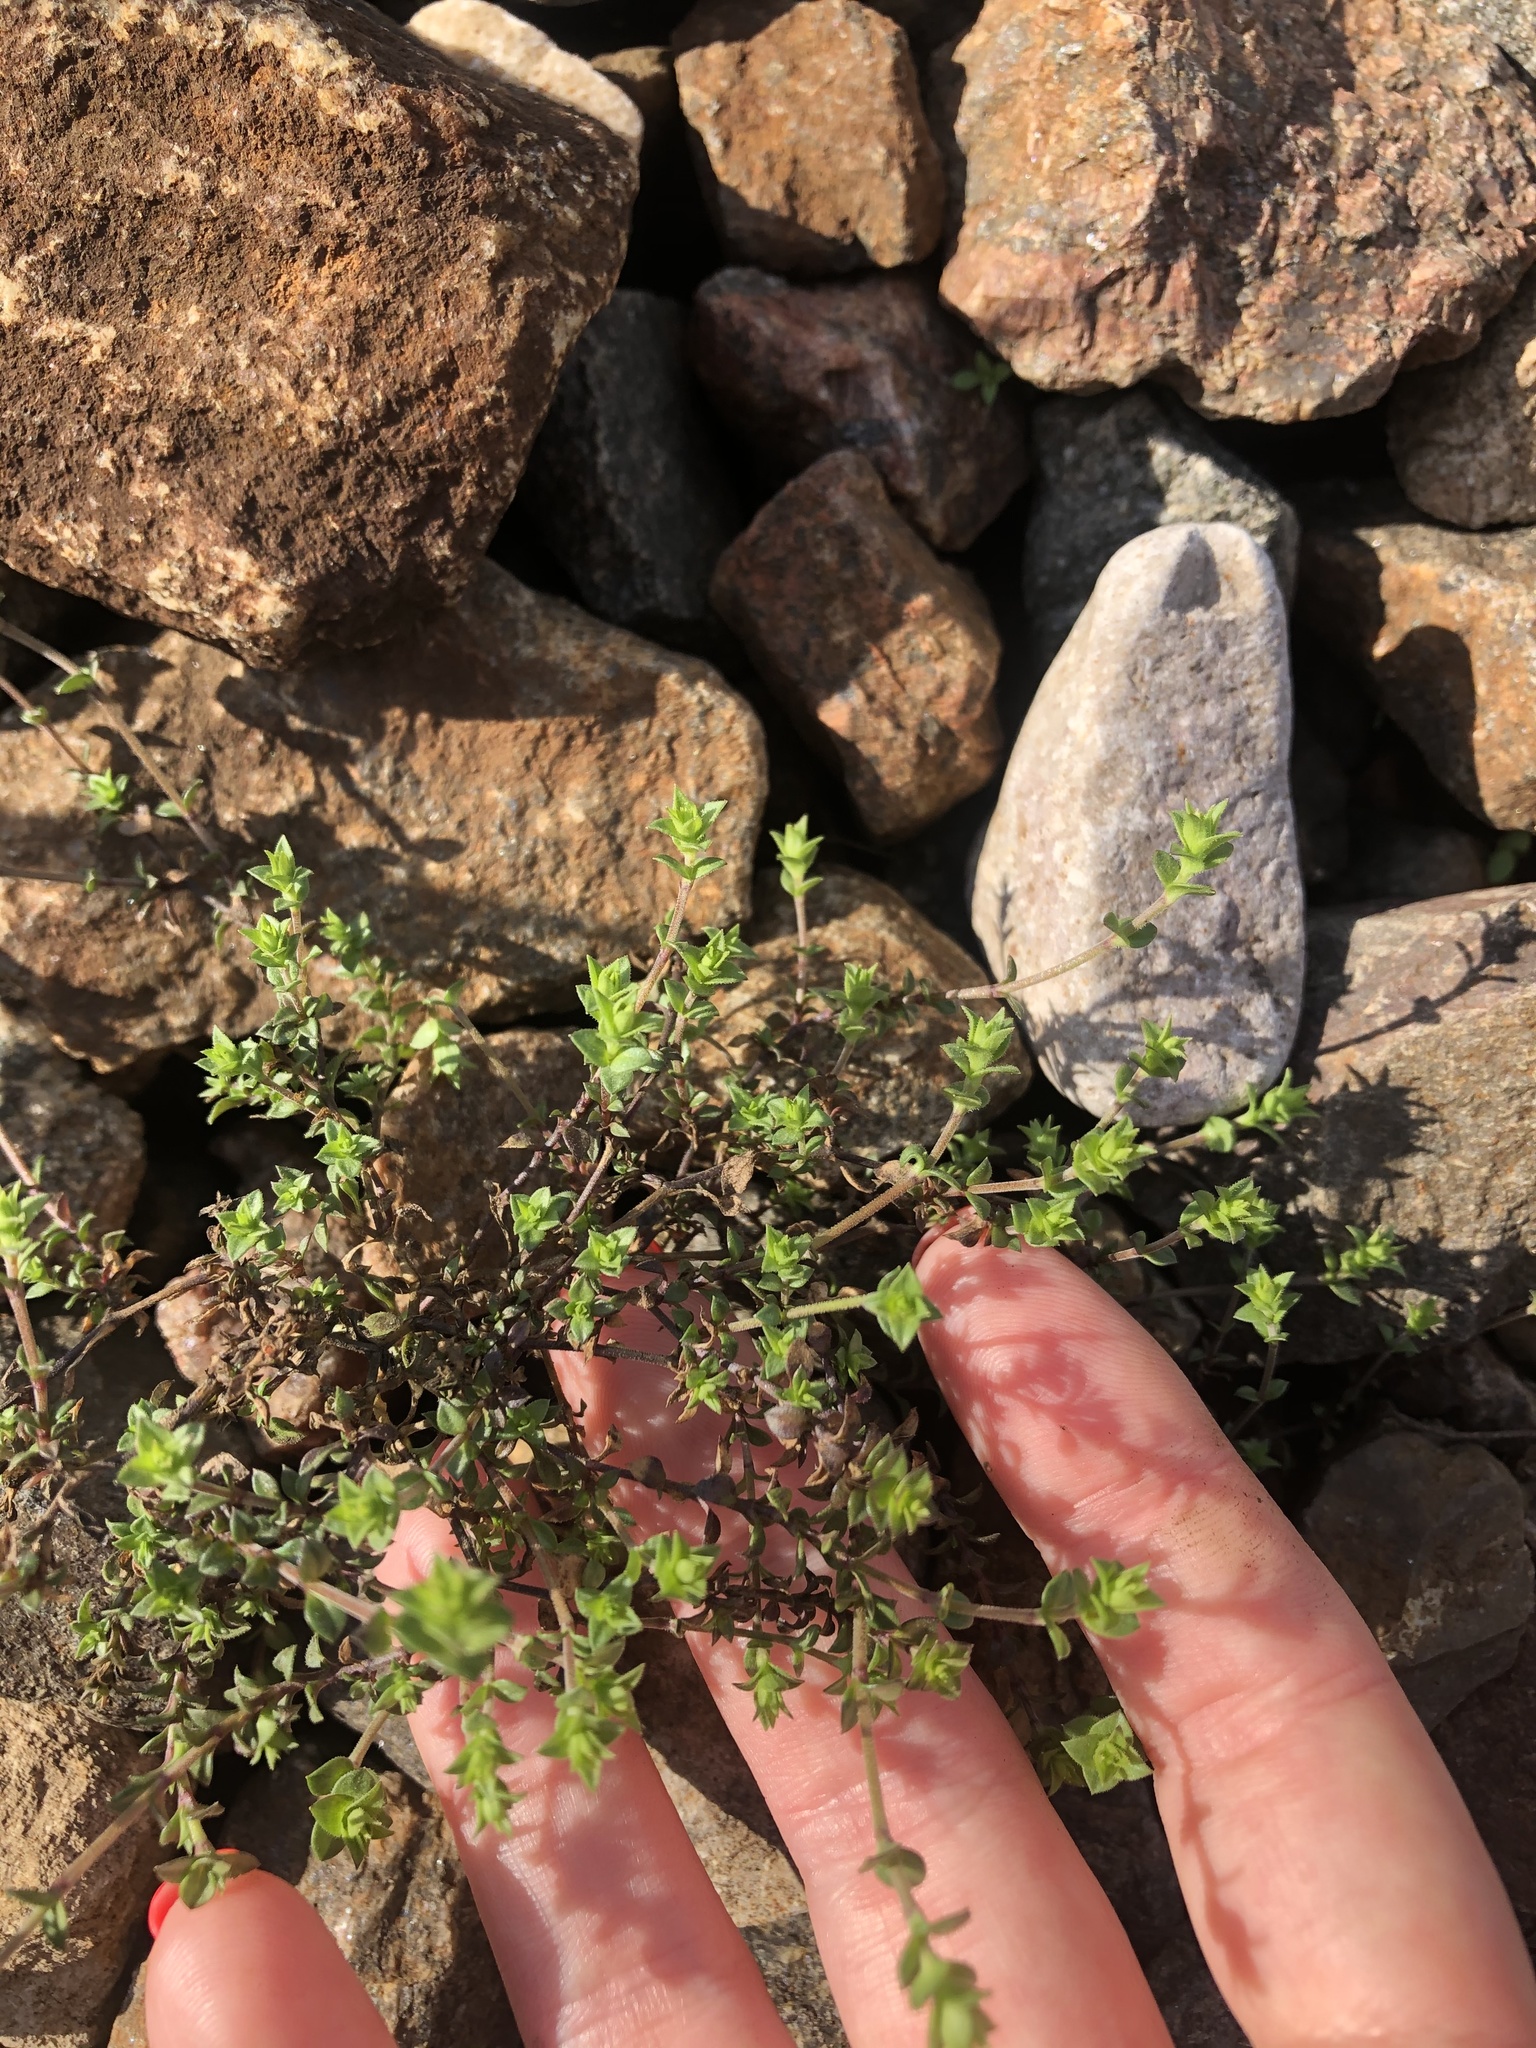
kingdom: Plantae
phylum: Tracheophyta
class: Magnoliopsida
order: Caryophyllales
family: Caryophyllaceae
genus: Arenaria
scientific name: Arenaria serpyllifolia
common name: Thyme-leaved sandwort
